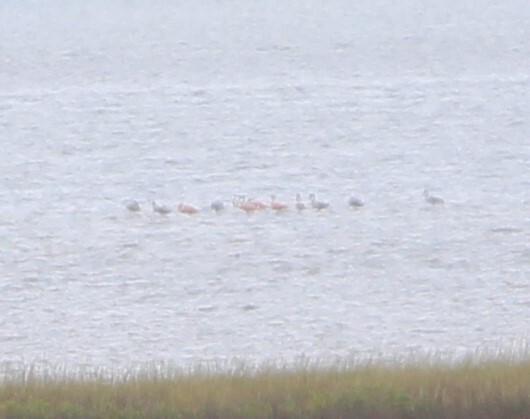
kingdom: Animalia
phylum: Chordata
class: Aves
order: Phoenicopteriformes
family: Phoenicopteridae
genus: Phoenicopterus
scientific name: Phoenicopterus ruber
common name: American flamingo
